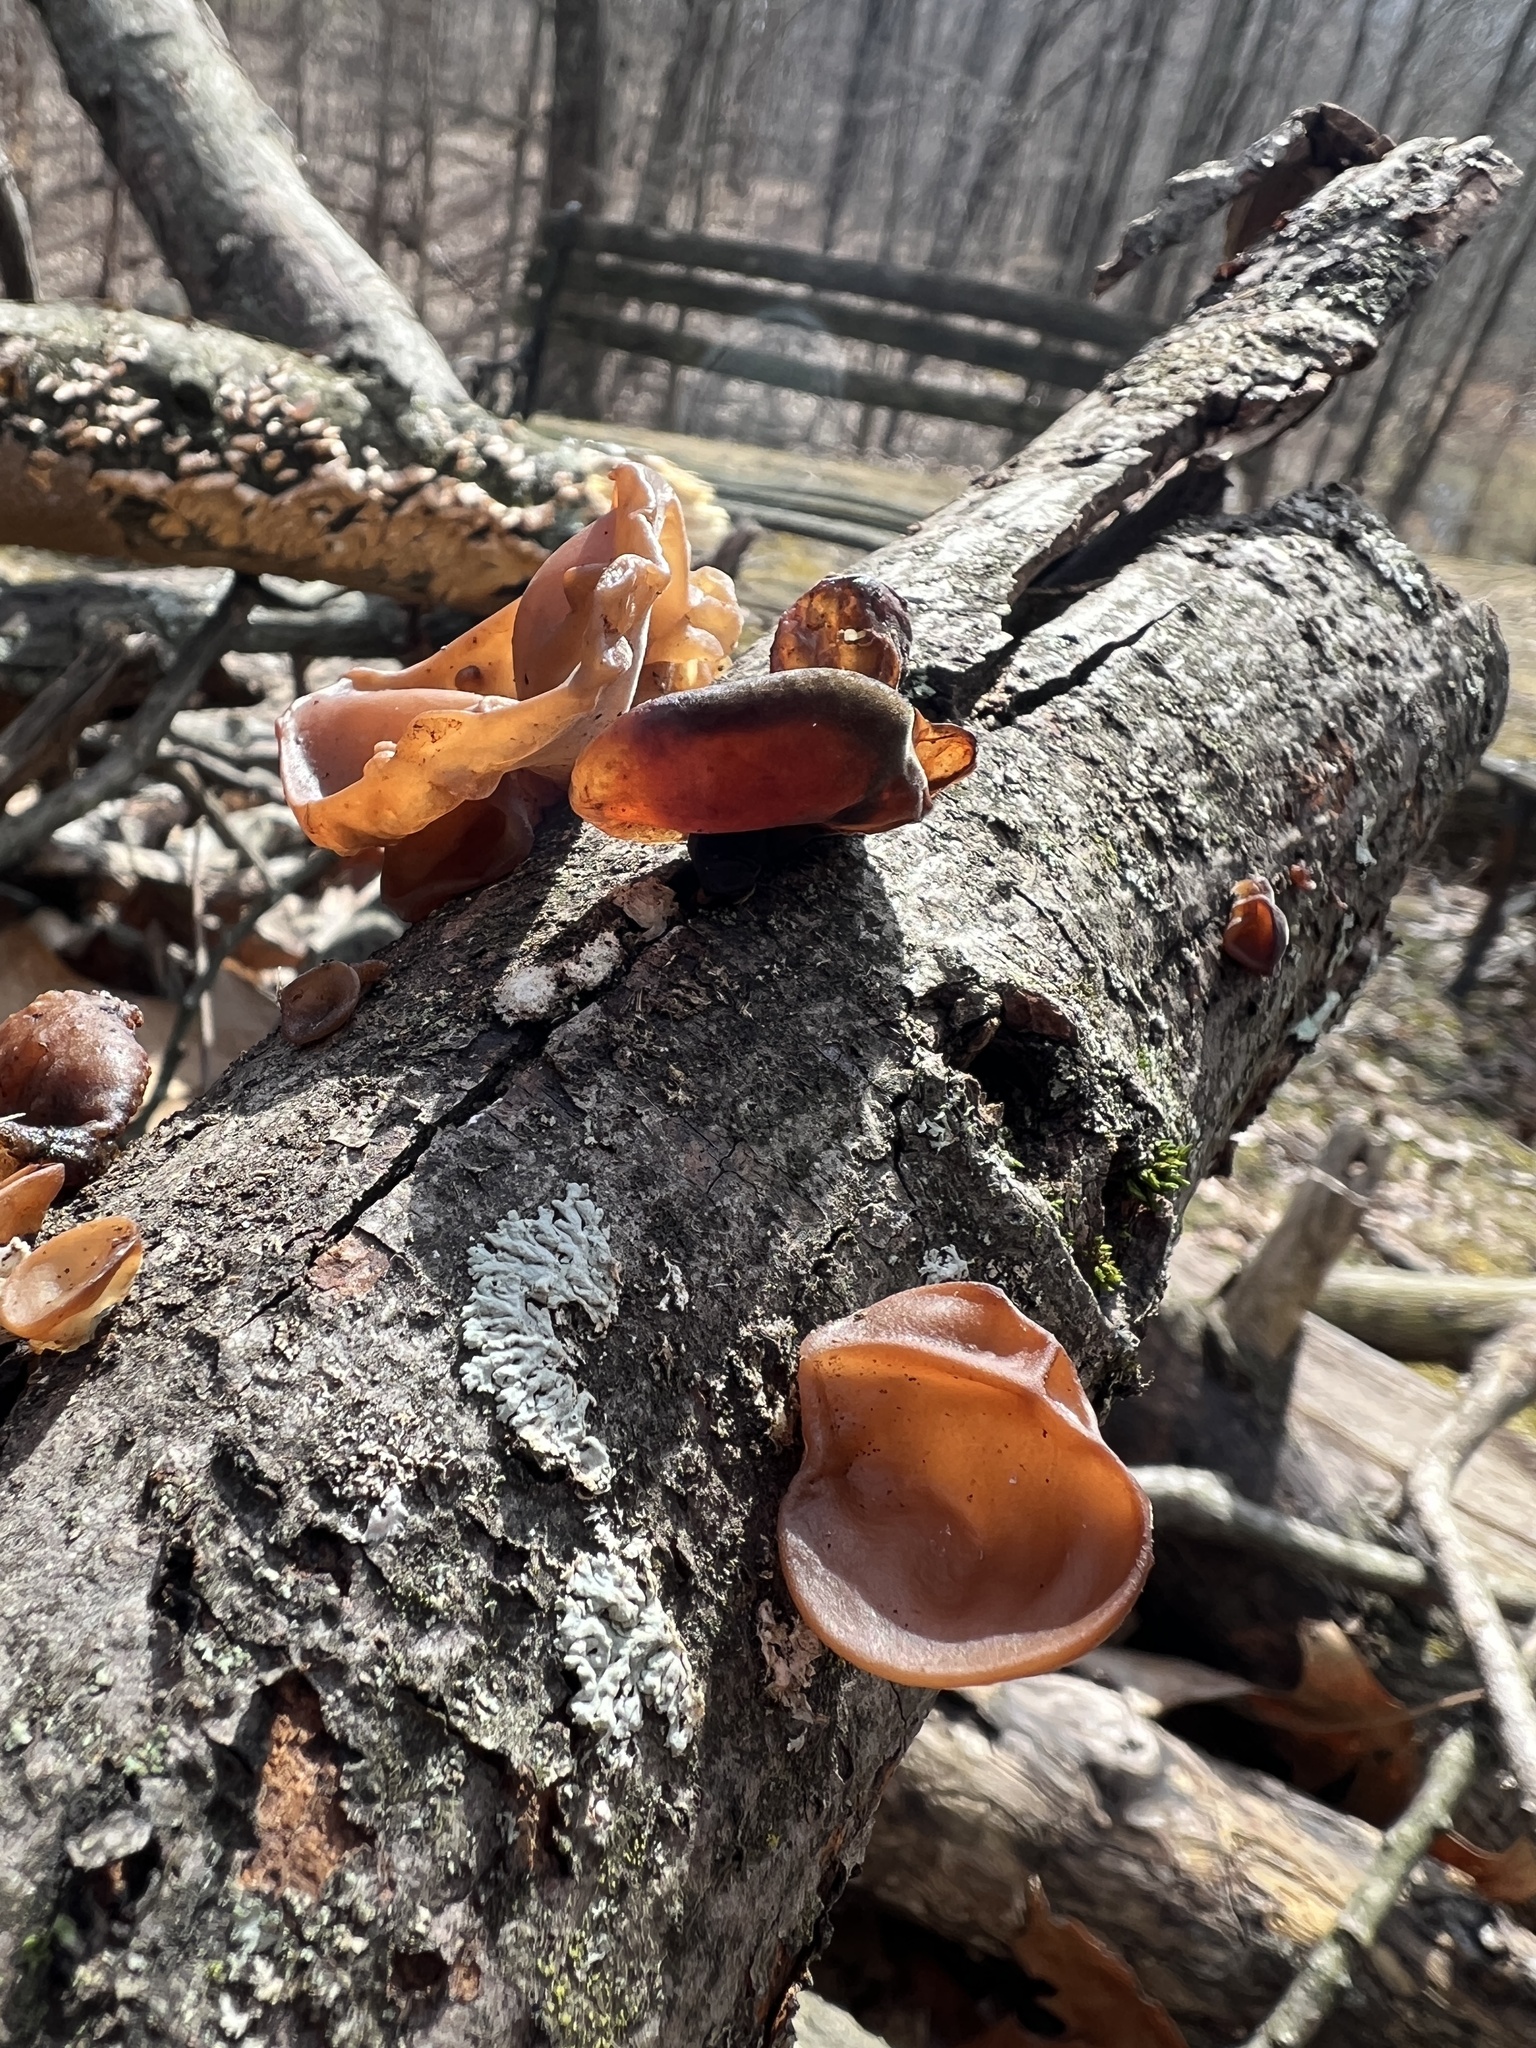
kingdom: Fungi
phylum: Basidiomycota
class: Agaricomycetes
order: Auriculariales
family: Auriculariaceae
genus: Auricularia
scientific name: Auricularia fuscosuccinea
